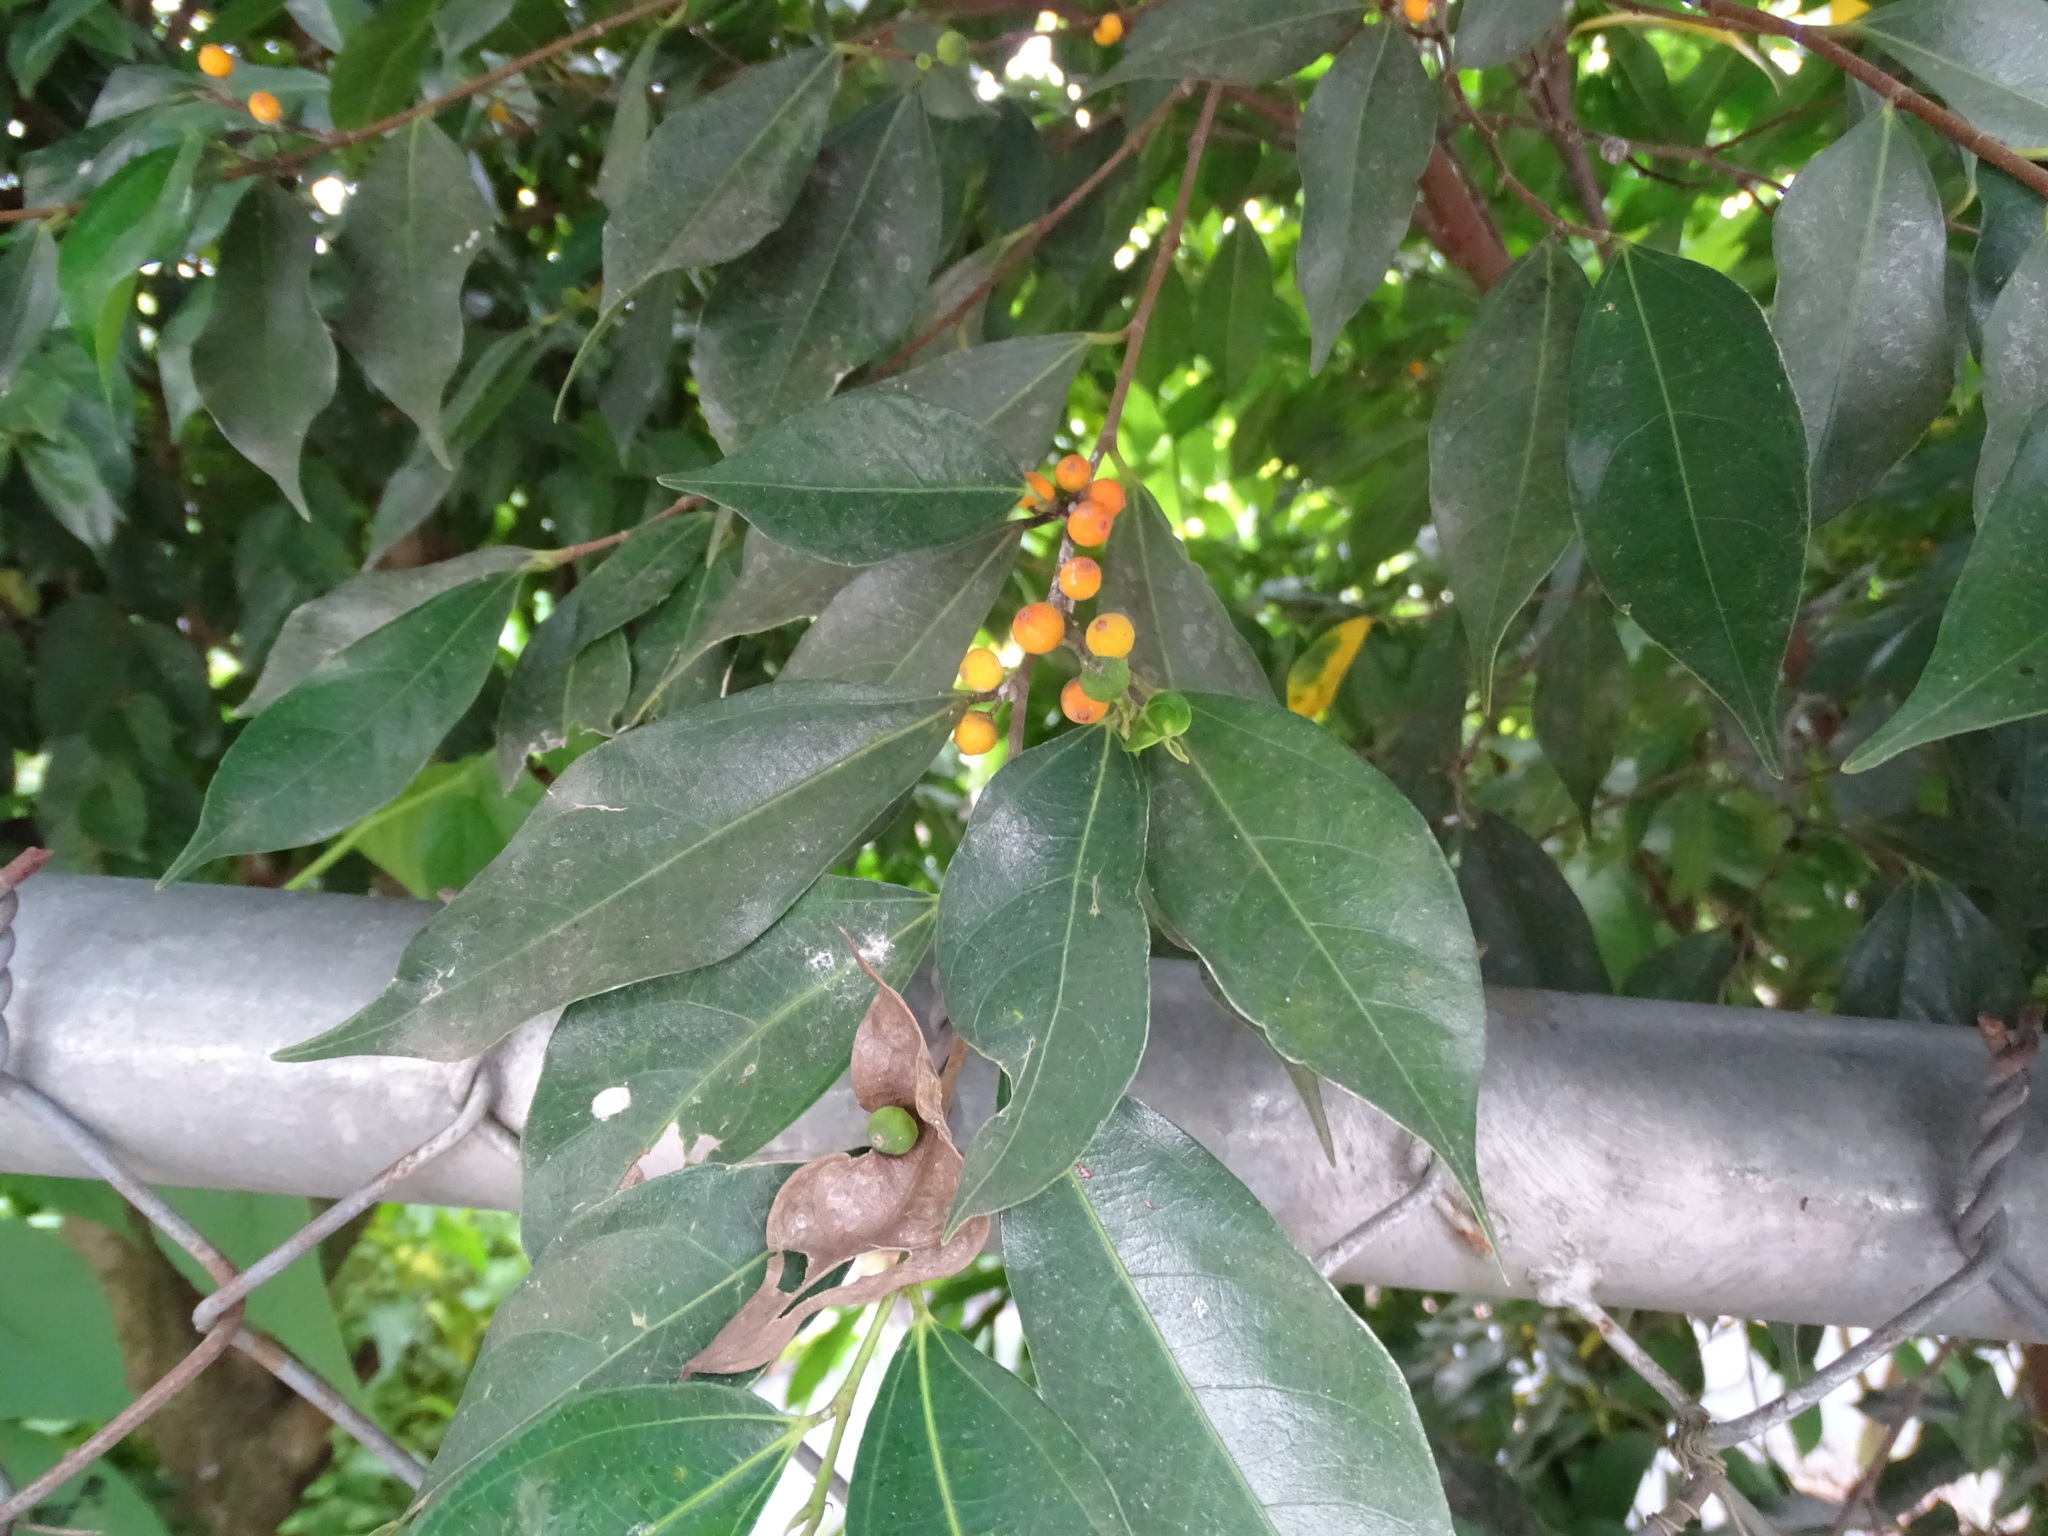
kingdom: Plantae
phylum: Tracheophyta
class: Magnoliopsida
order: Rosales
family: Moraceae
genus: Ficus
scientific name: Ficus ampelos
